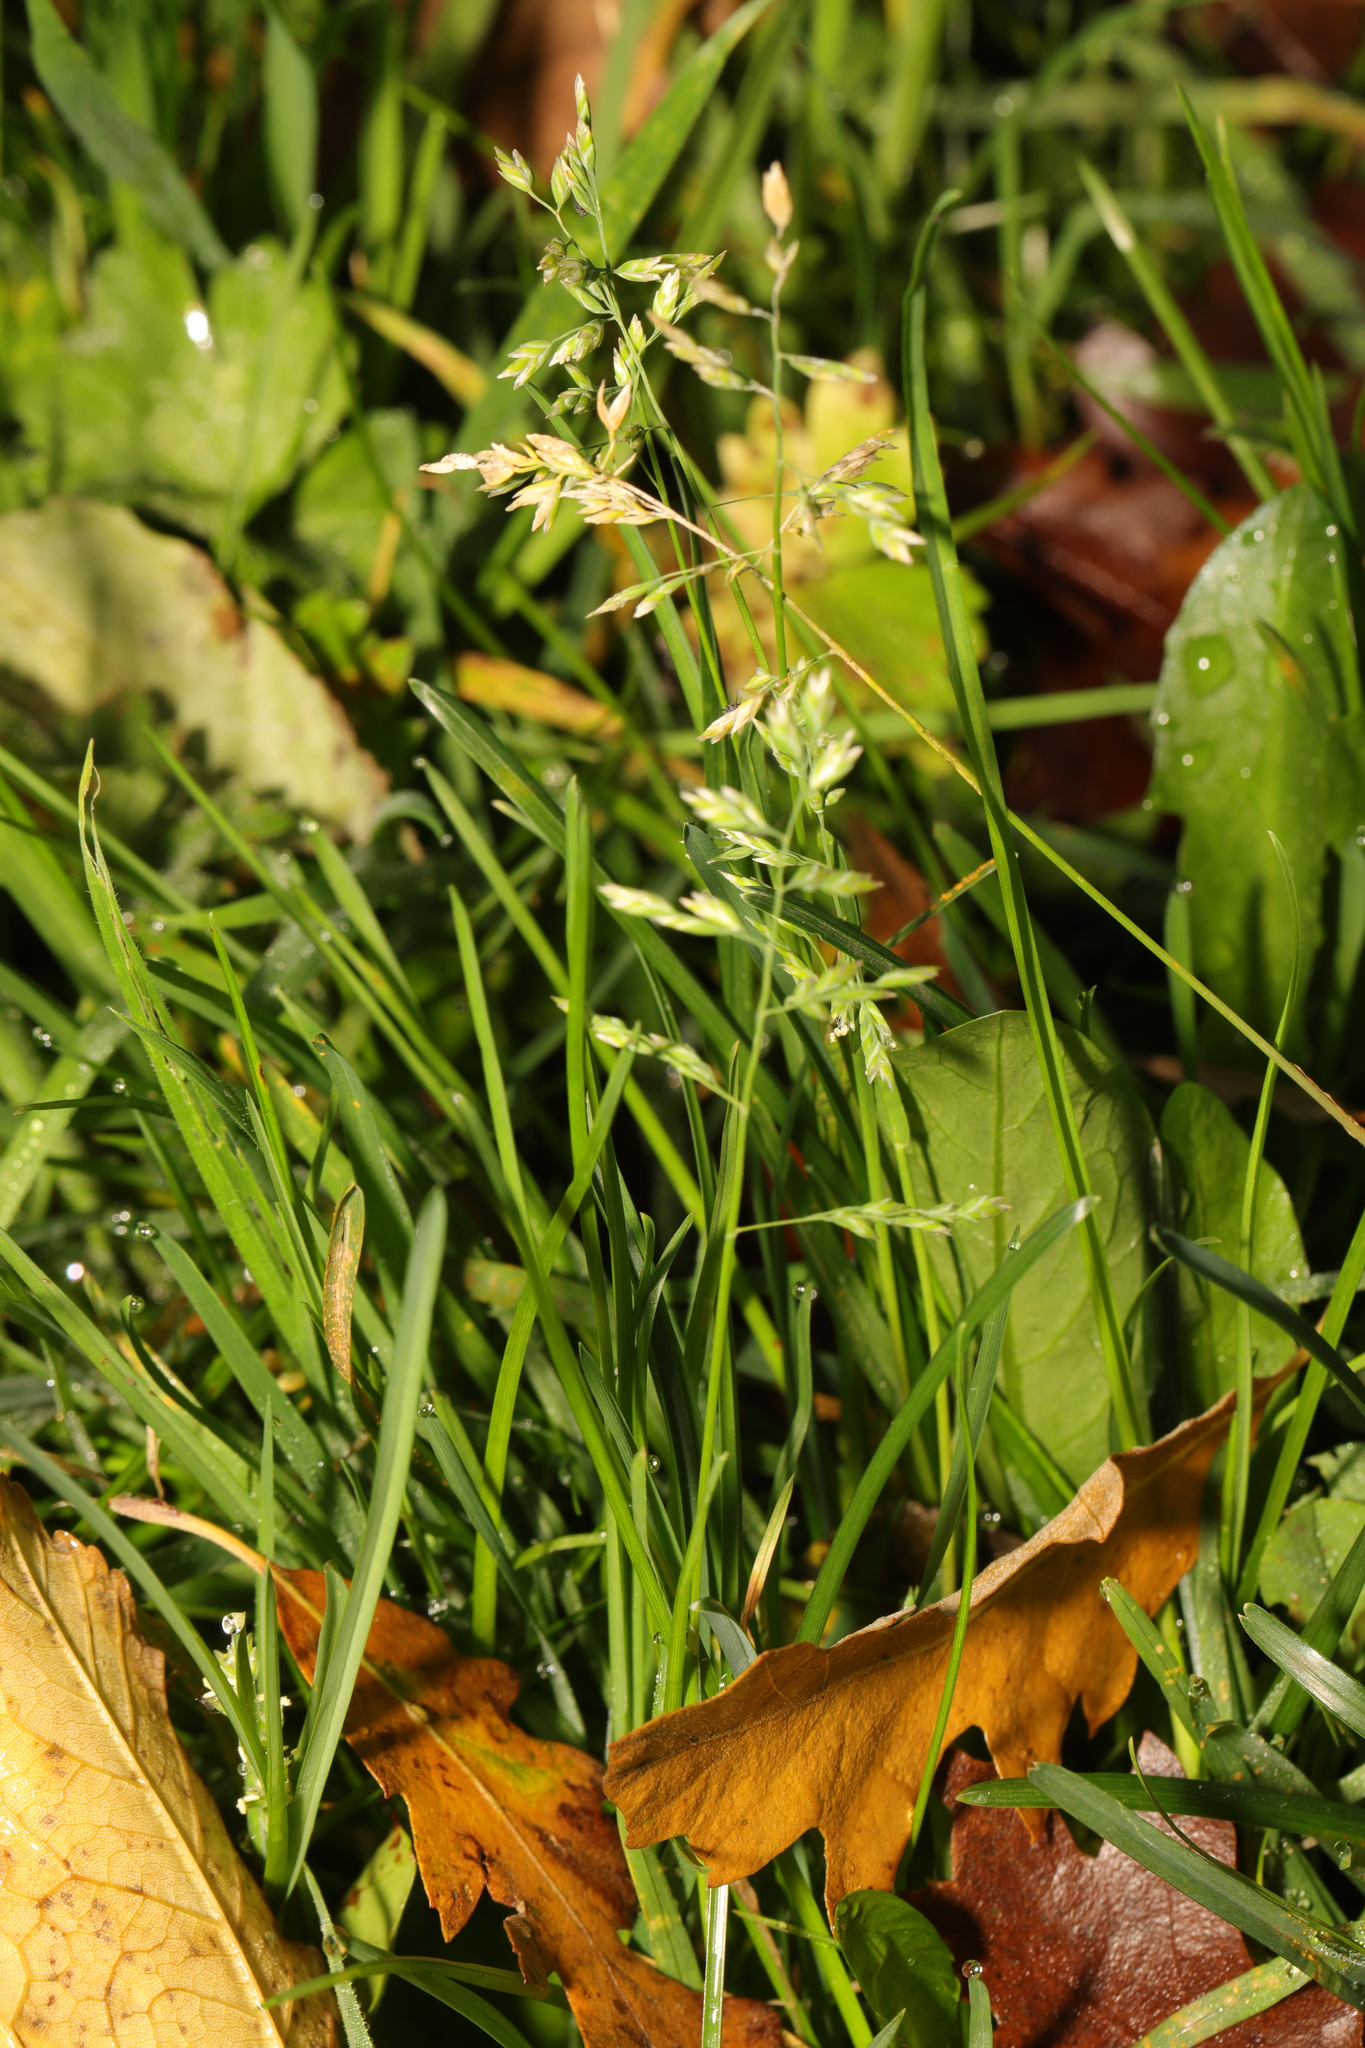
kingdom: Plantae
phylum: Tracheophyta
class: Liliopsida
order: Poales
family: Poaceae
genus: Poa
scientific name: Poa annua
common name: Annual bluegrass
